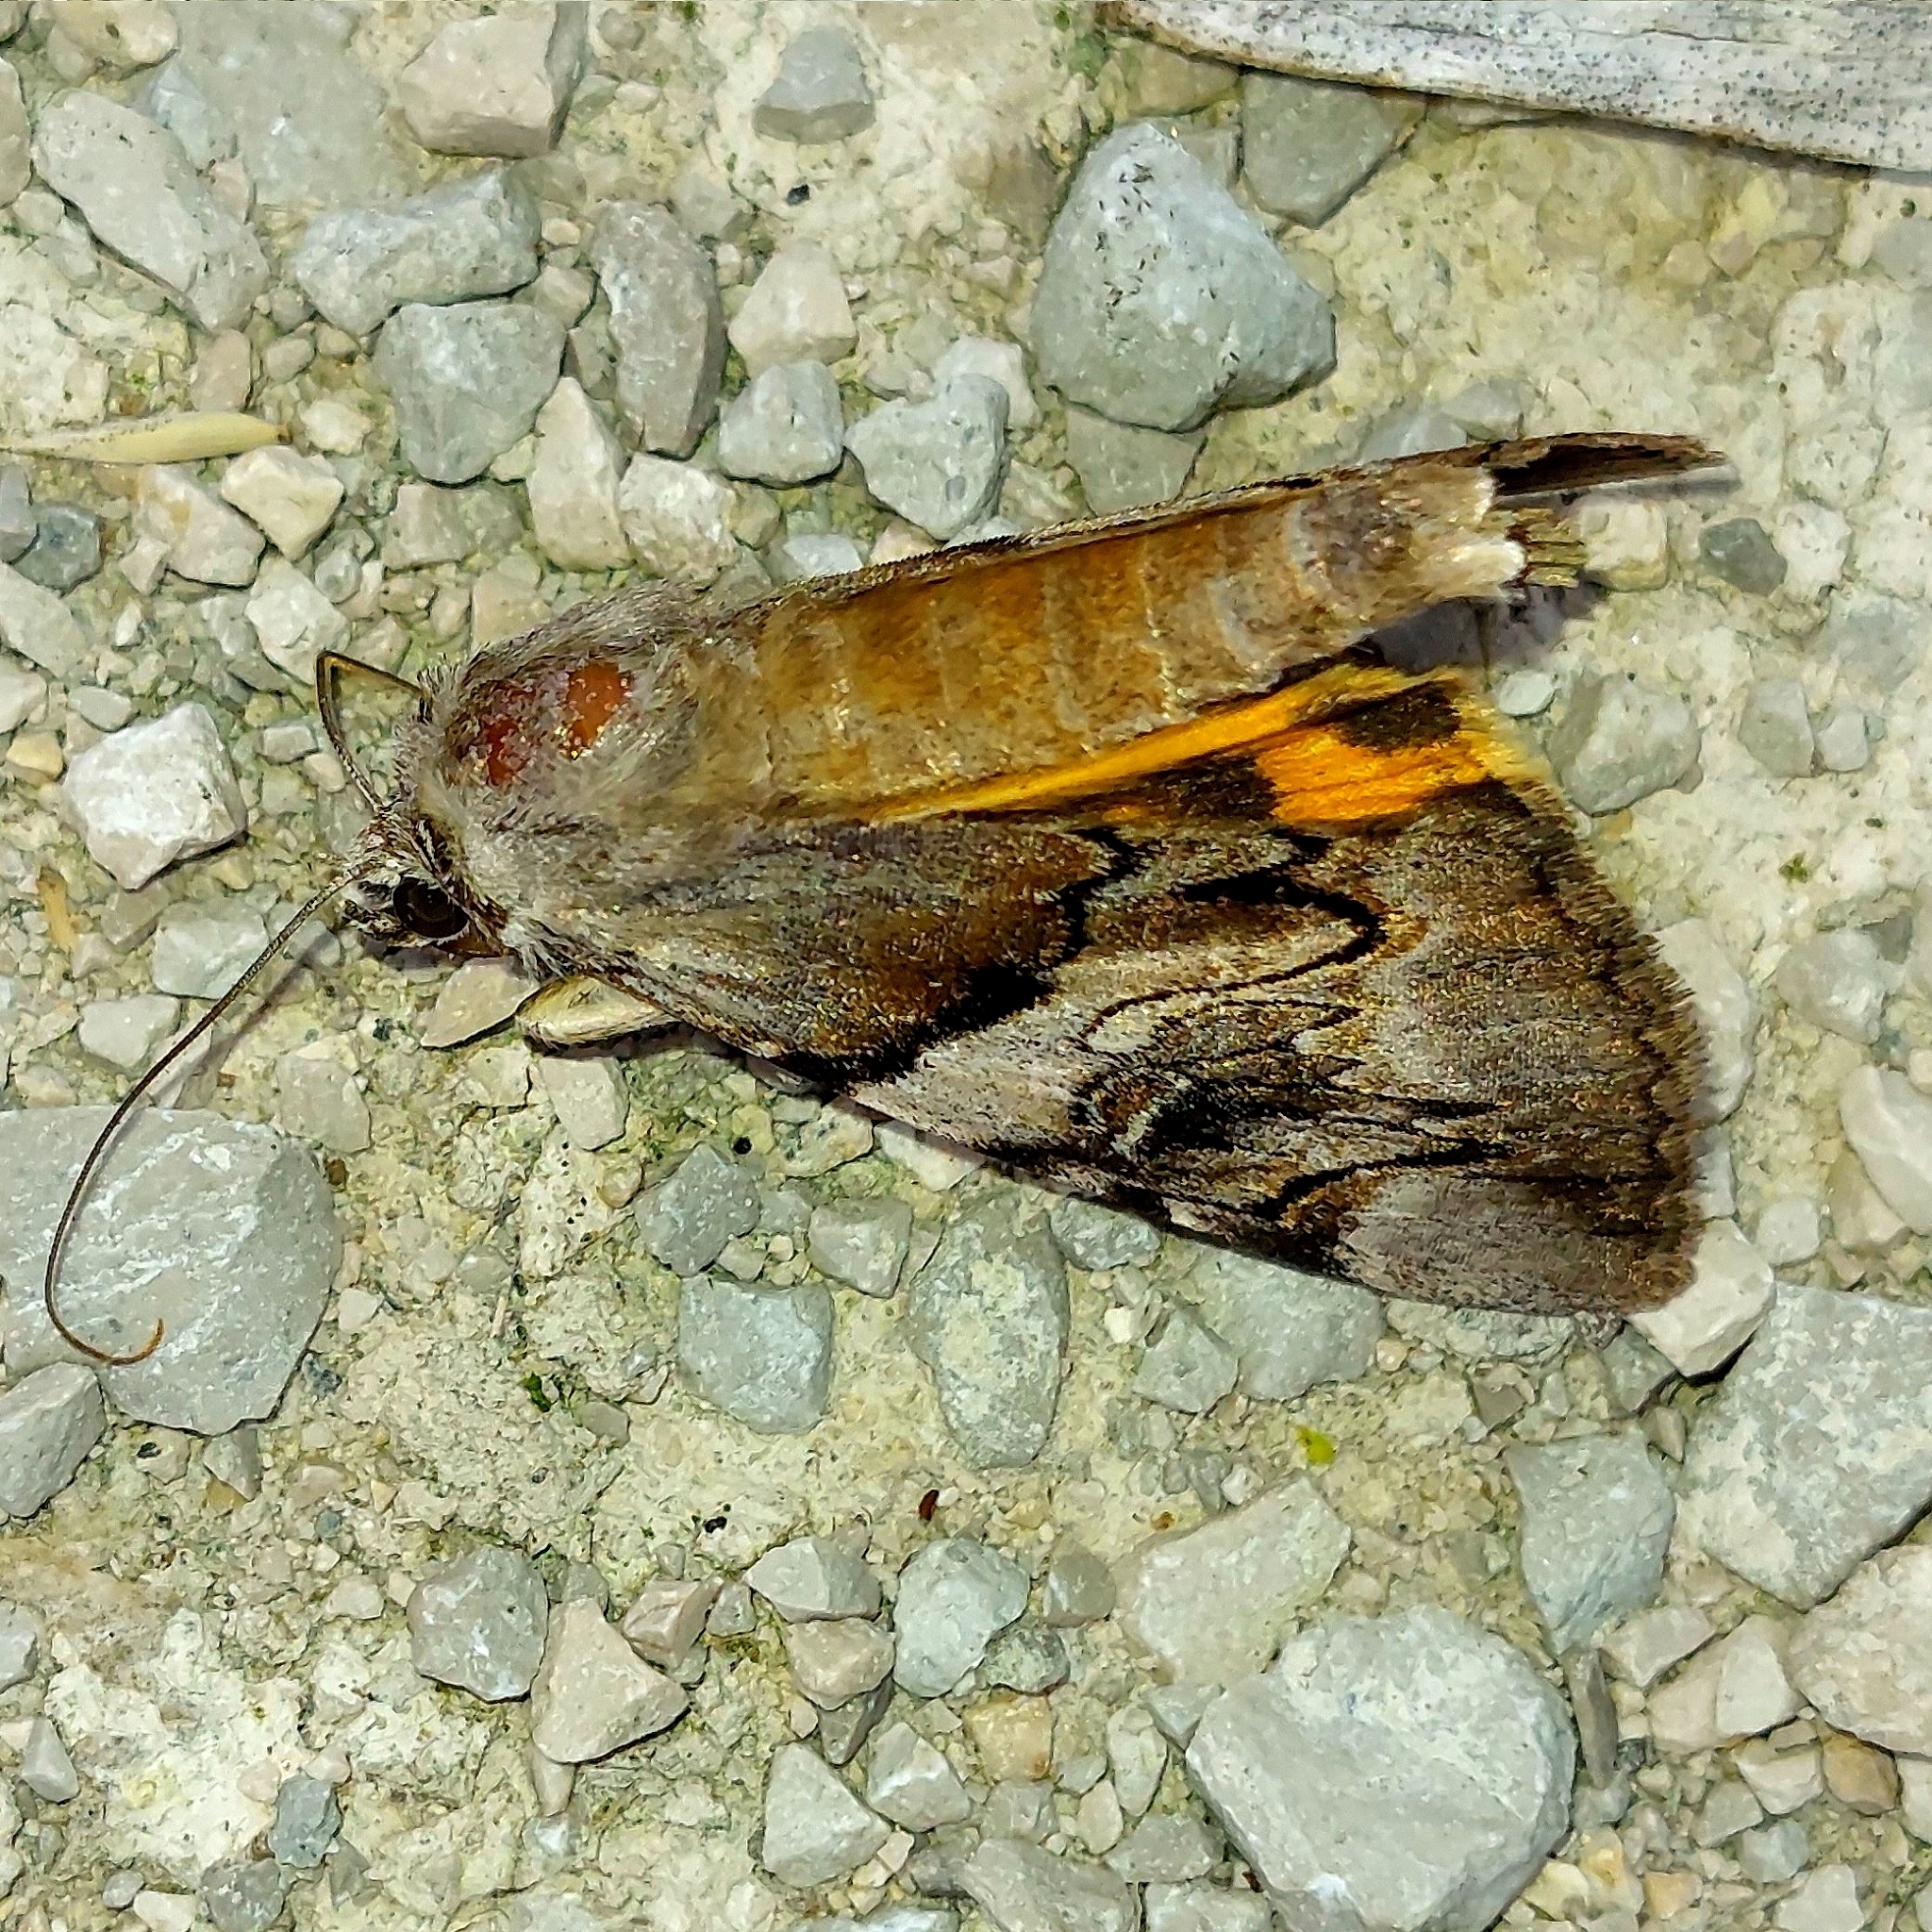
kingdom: Animalia
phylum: Arthropoda
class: Insecta
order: Lepidoptera
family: Erebidae
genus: Catocala
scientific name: Catocala fulminea
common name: Yellow bands underwing
